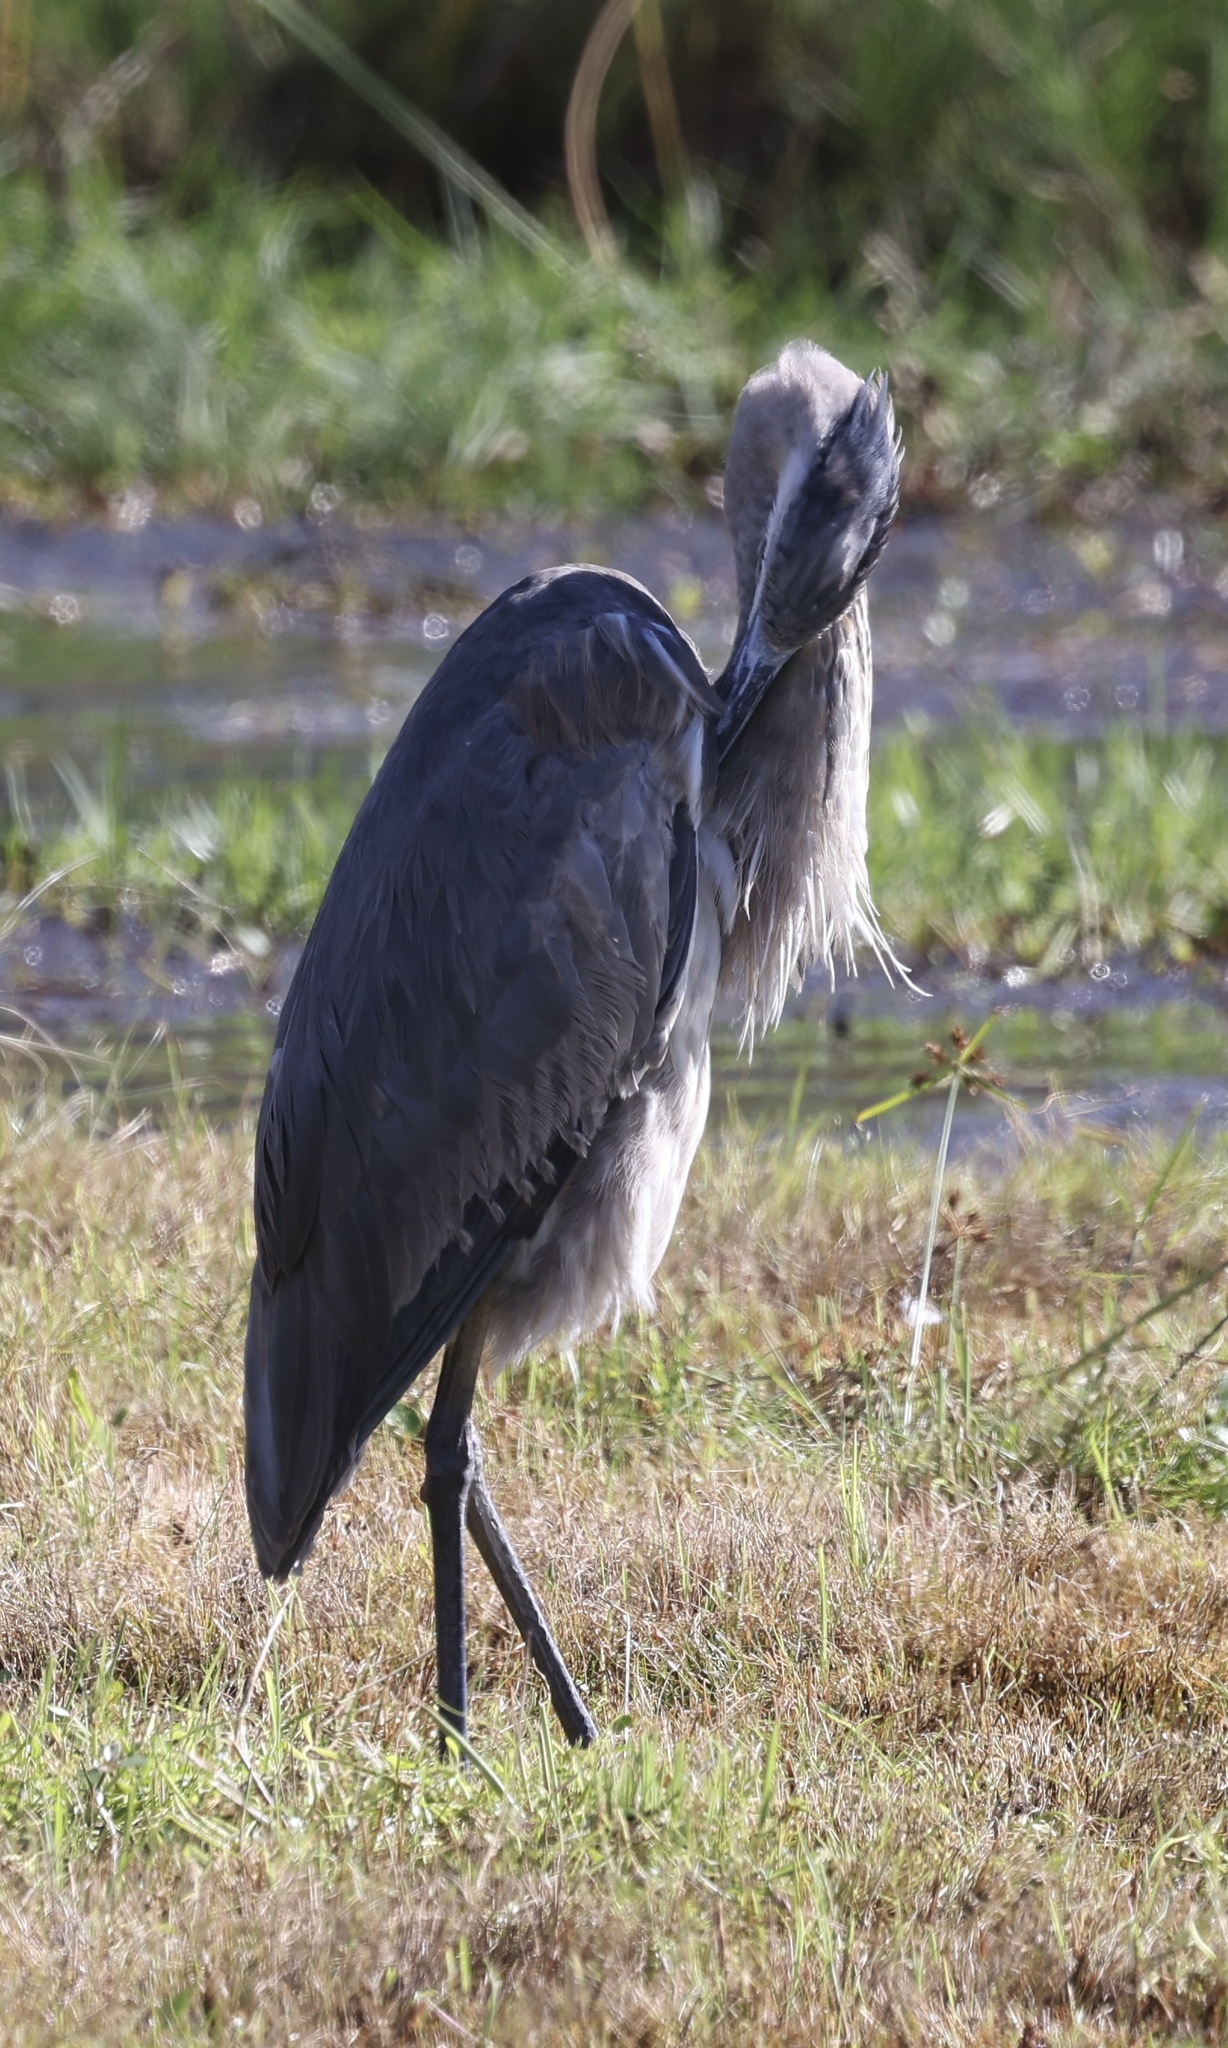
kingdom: Animalia
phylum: Chordata
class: Aves
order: Pelecaniformes
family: Ardeidae
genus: Ardea
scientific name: Ardea herodias
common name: Great blue heron
